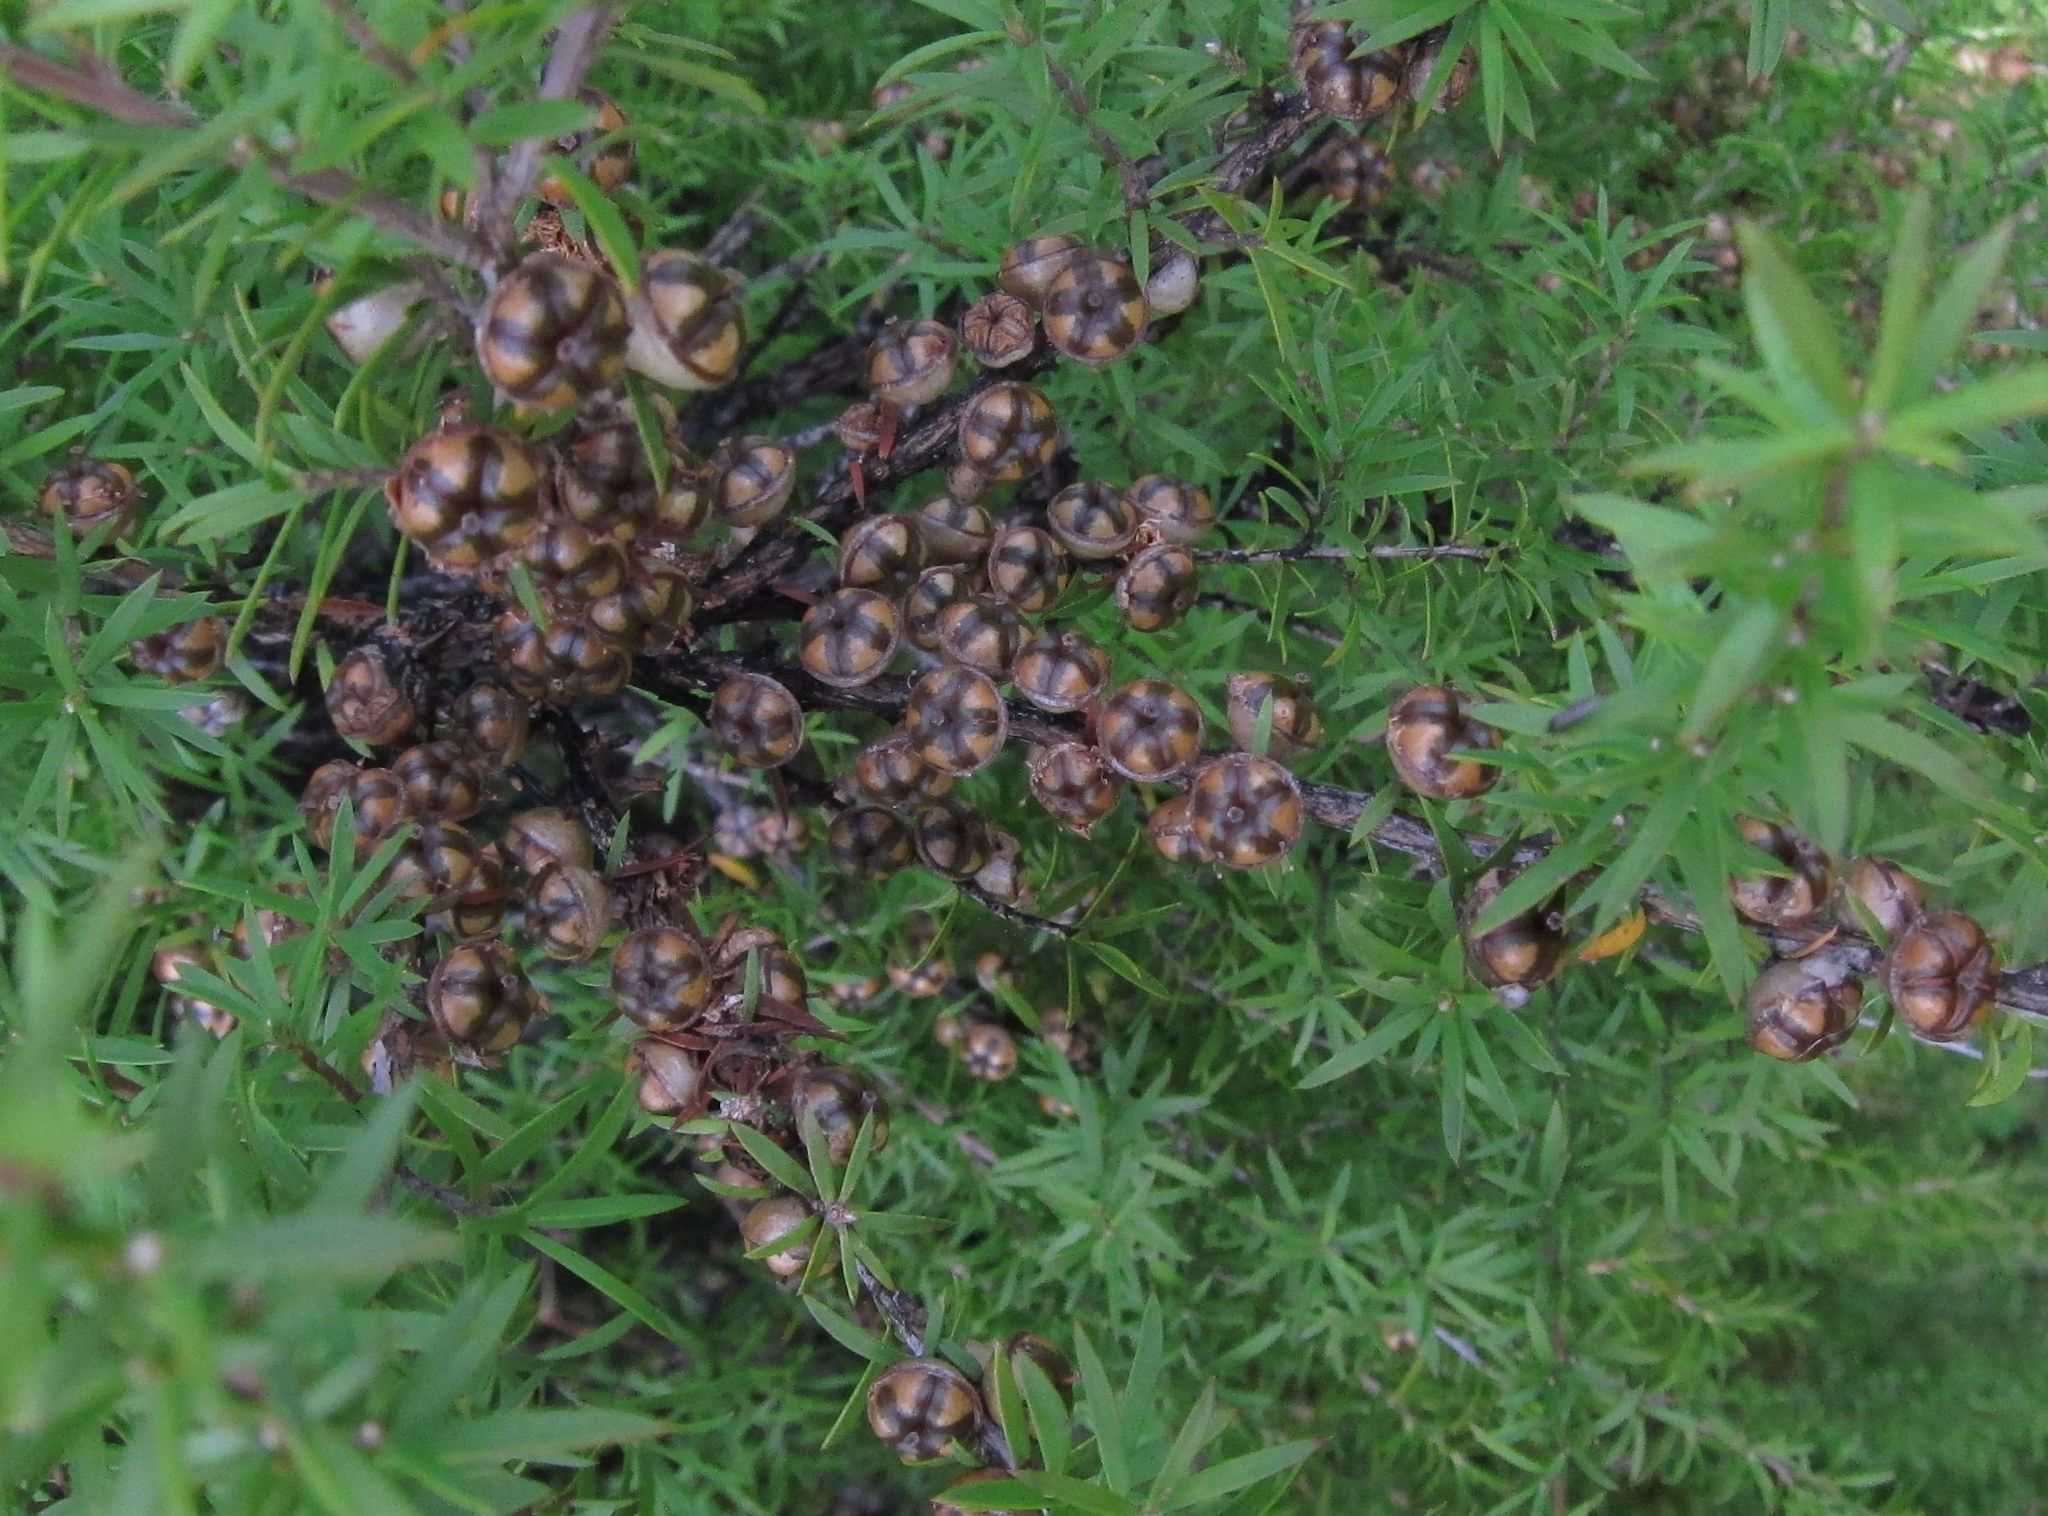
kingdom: Plantae
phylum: Tracheophyta
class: Magnoliopsida
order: Myrtales
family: Myrtaceae
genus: Leptospermum
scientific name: Leptospermum scoparium
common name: Broom tea-tree
